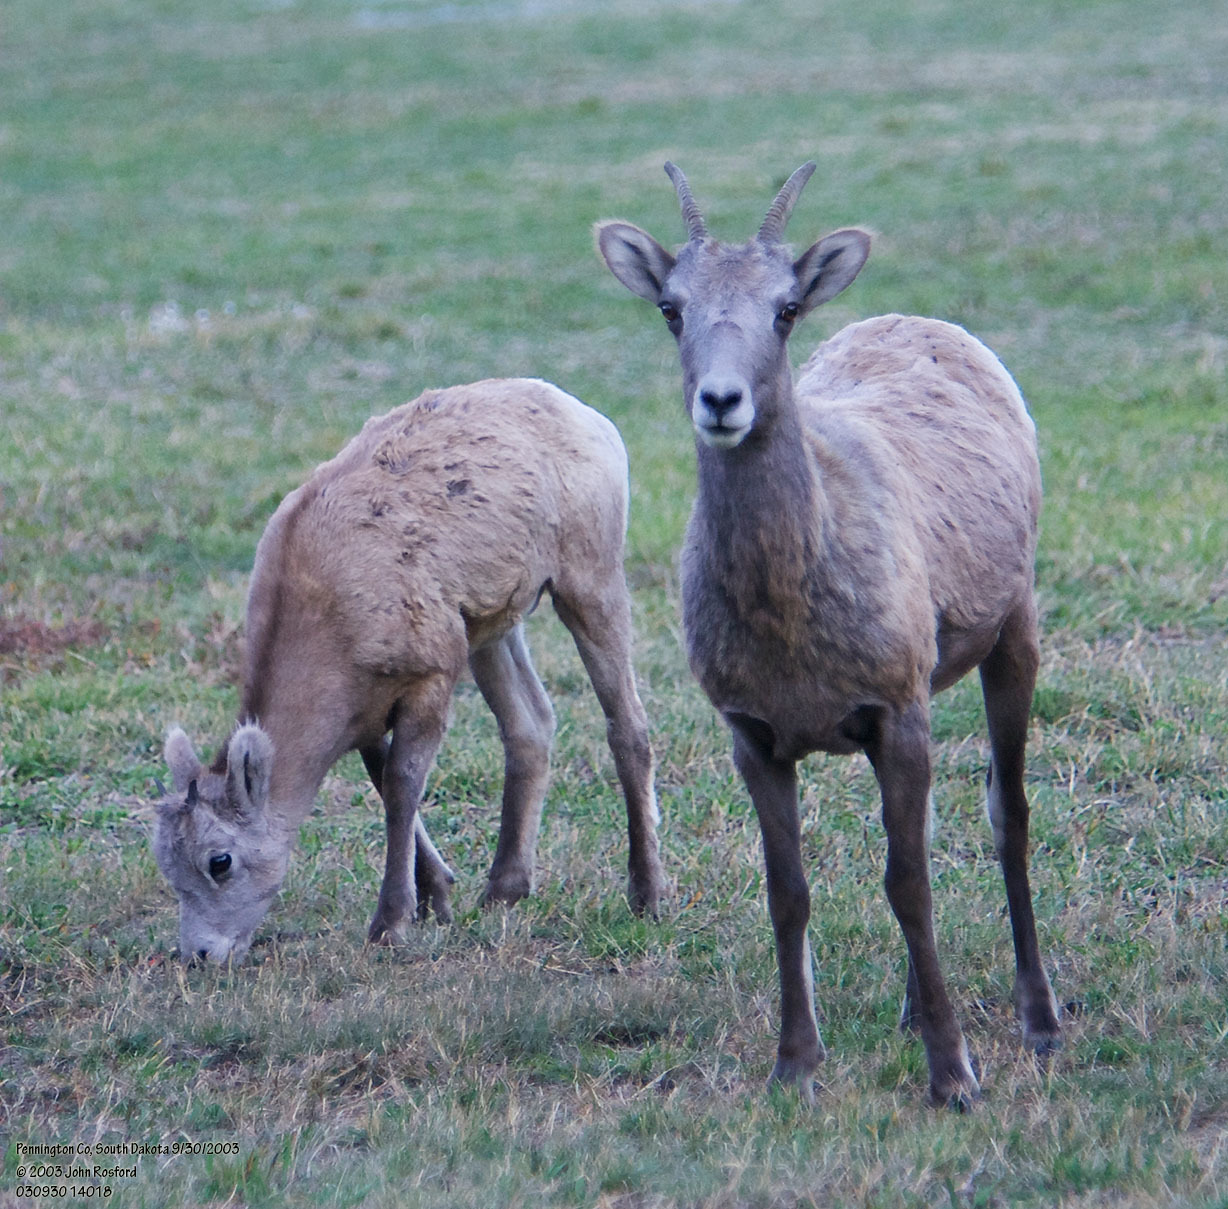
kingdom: Animalia
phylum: Chordata
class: Mammalia
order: Artiodactyla
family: Bovidae
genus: Ovis
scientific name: Ovis canadensis
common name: Bighorn sheep
